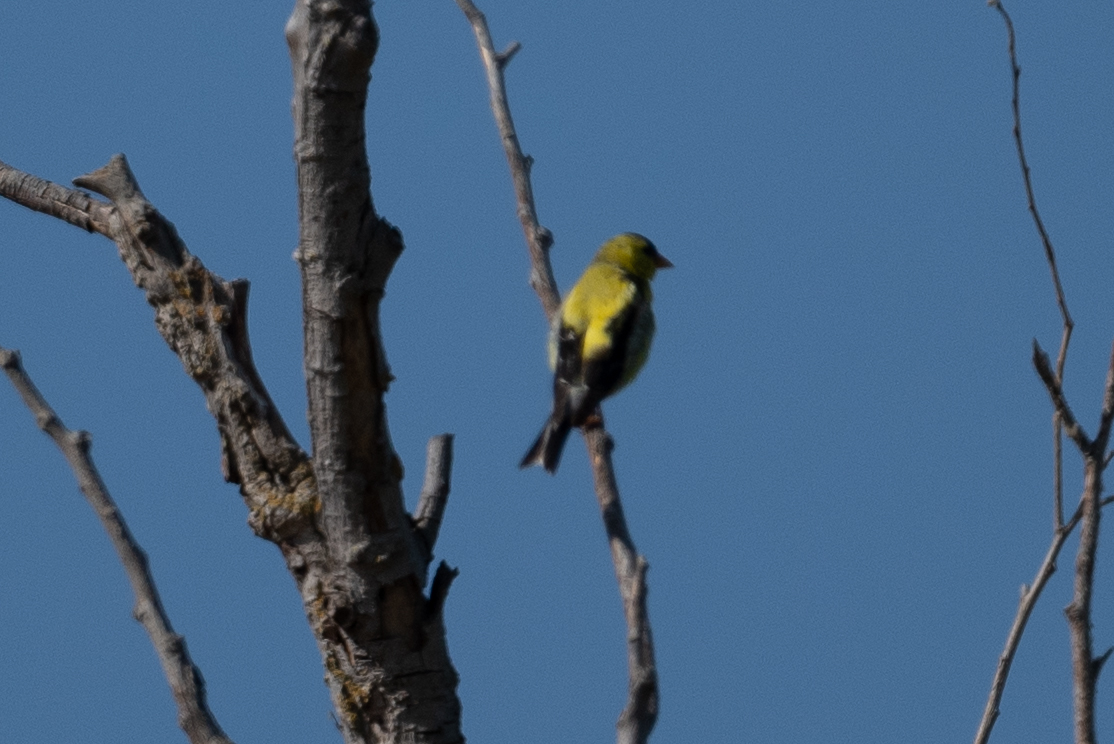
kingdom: Animalia
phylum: Chordata
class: Aves
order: Passeriformes
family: Fringillidae
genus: Spinus
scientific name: Spinus tristis
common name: American goldfinch
